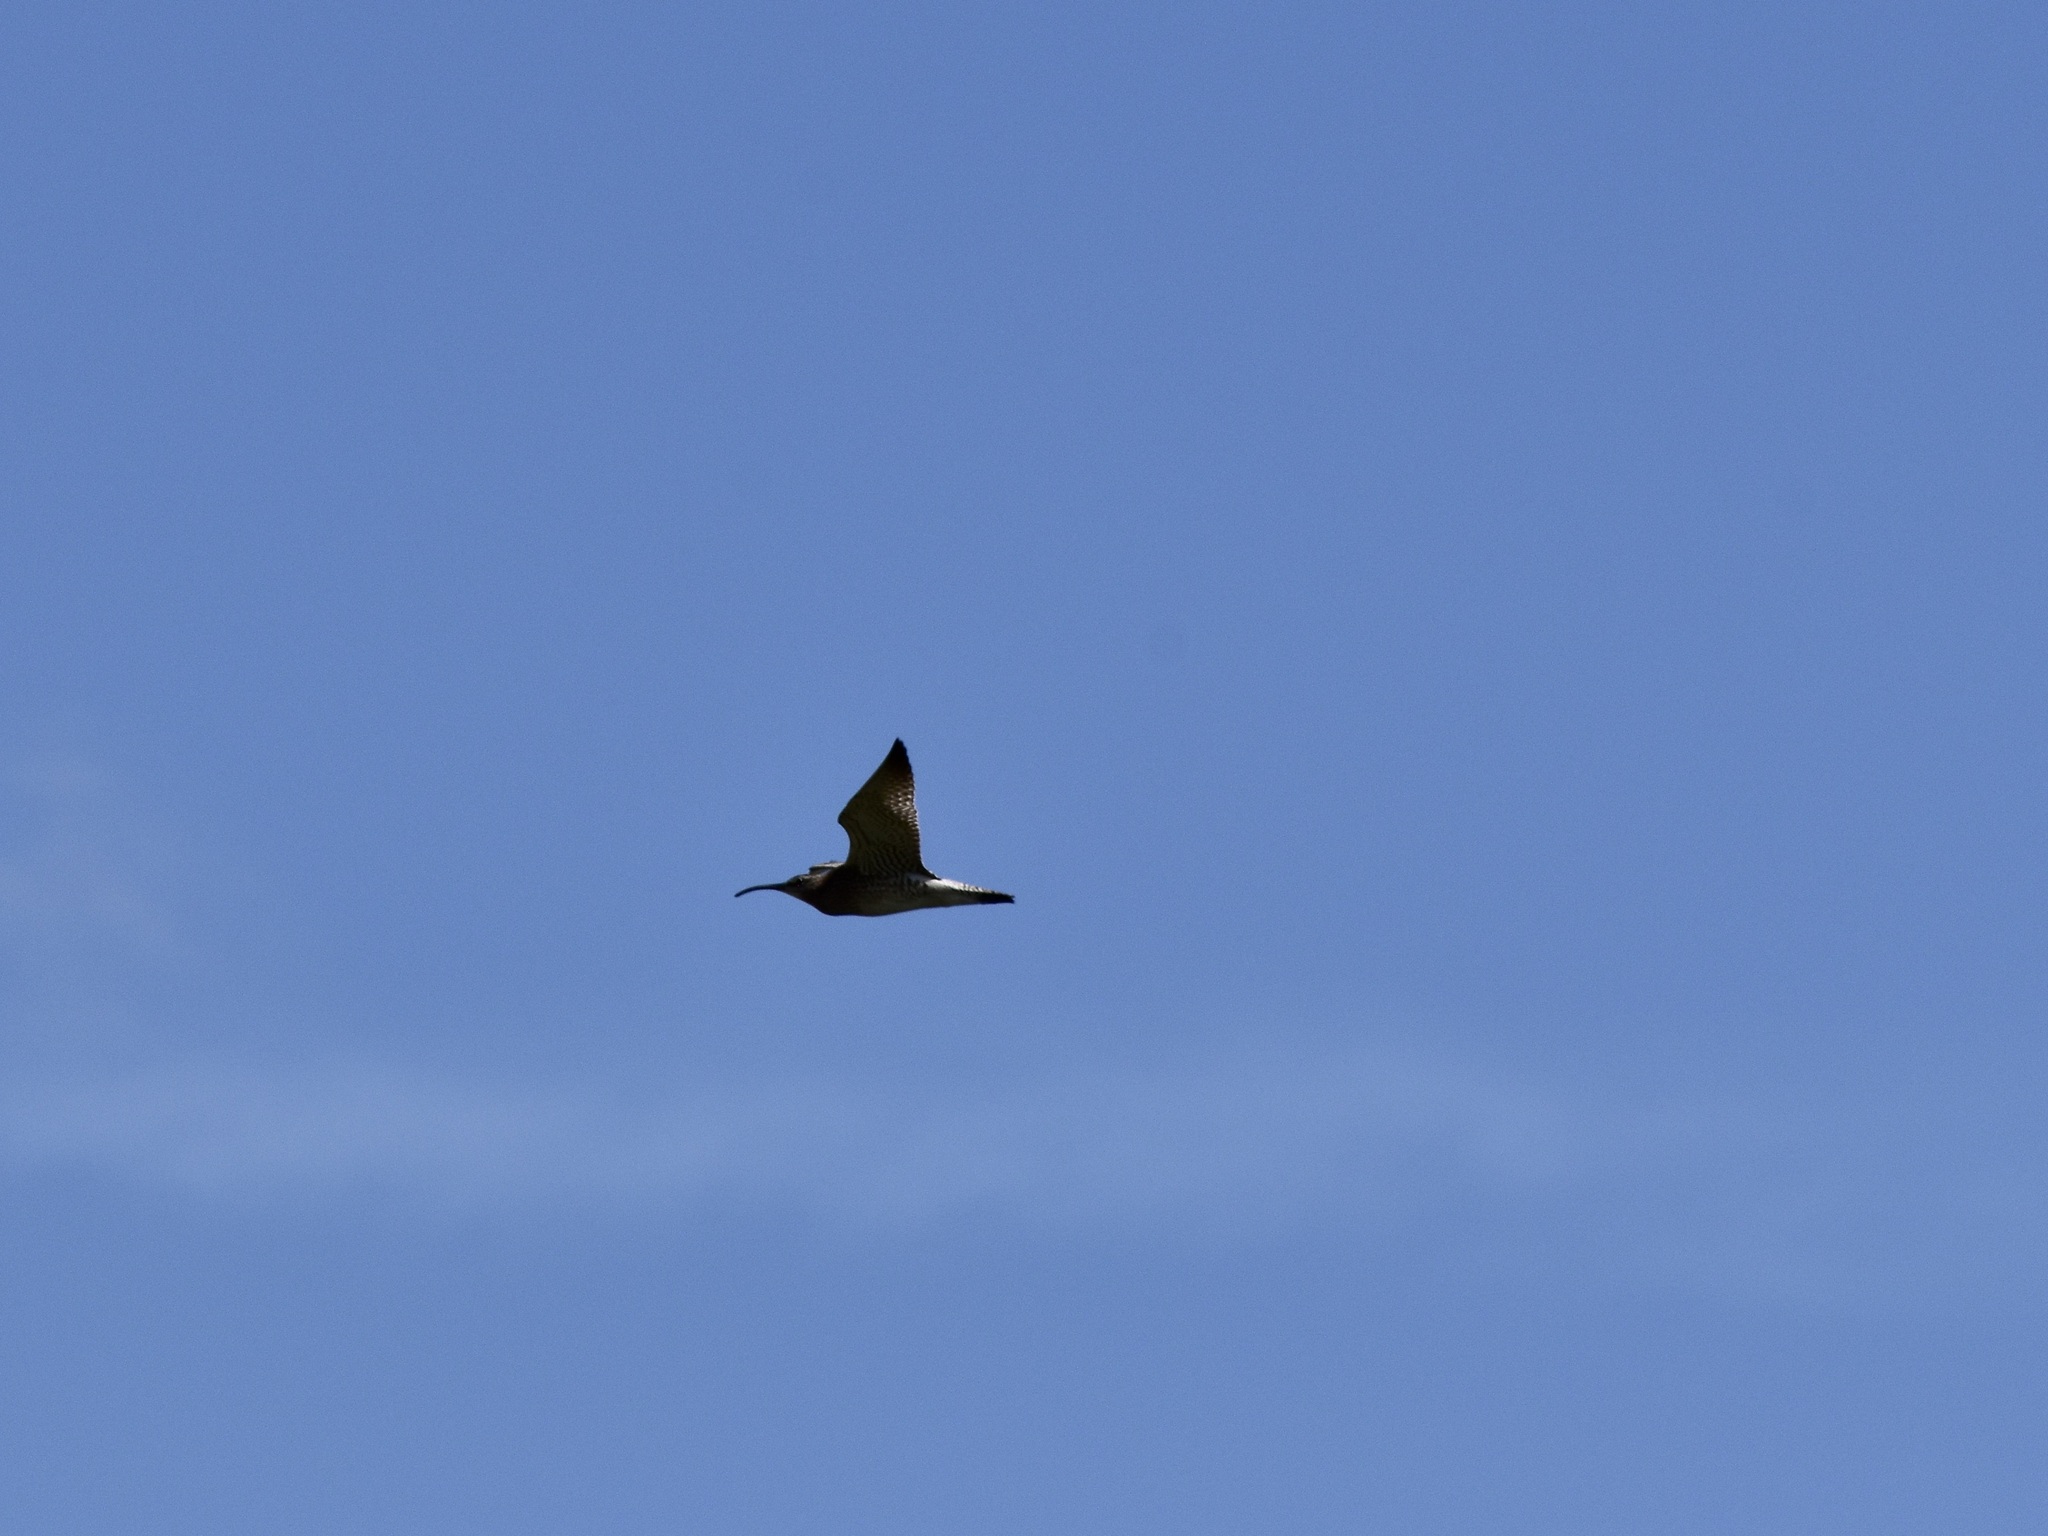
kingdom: Animalia
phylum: Chordata
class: Aves
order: Charadriiformes
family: Scolopacidae
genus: Numenius
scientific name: Numenius phaeopus
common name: Whimbrel
